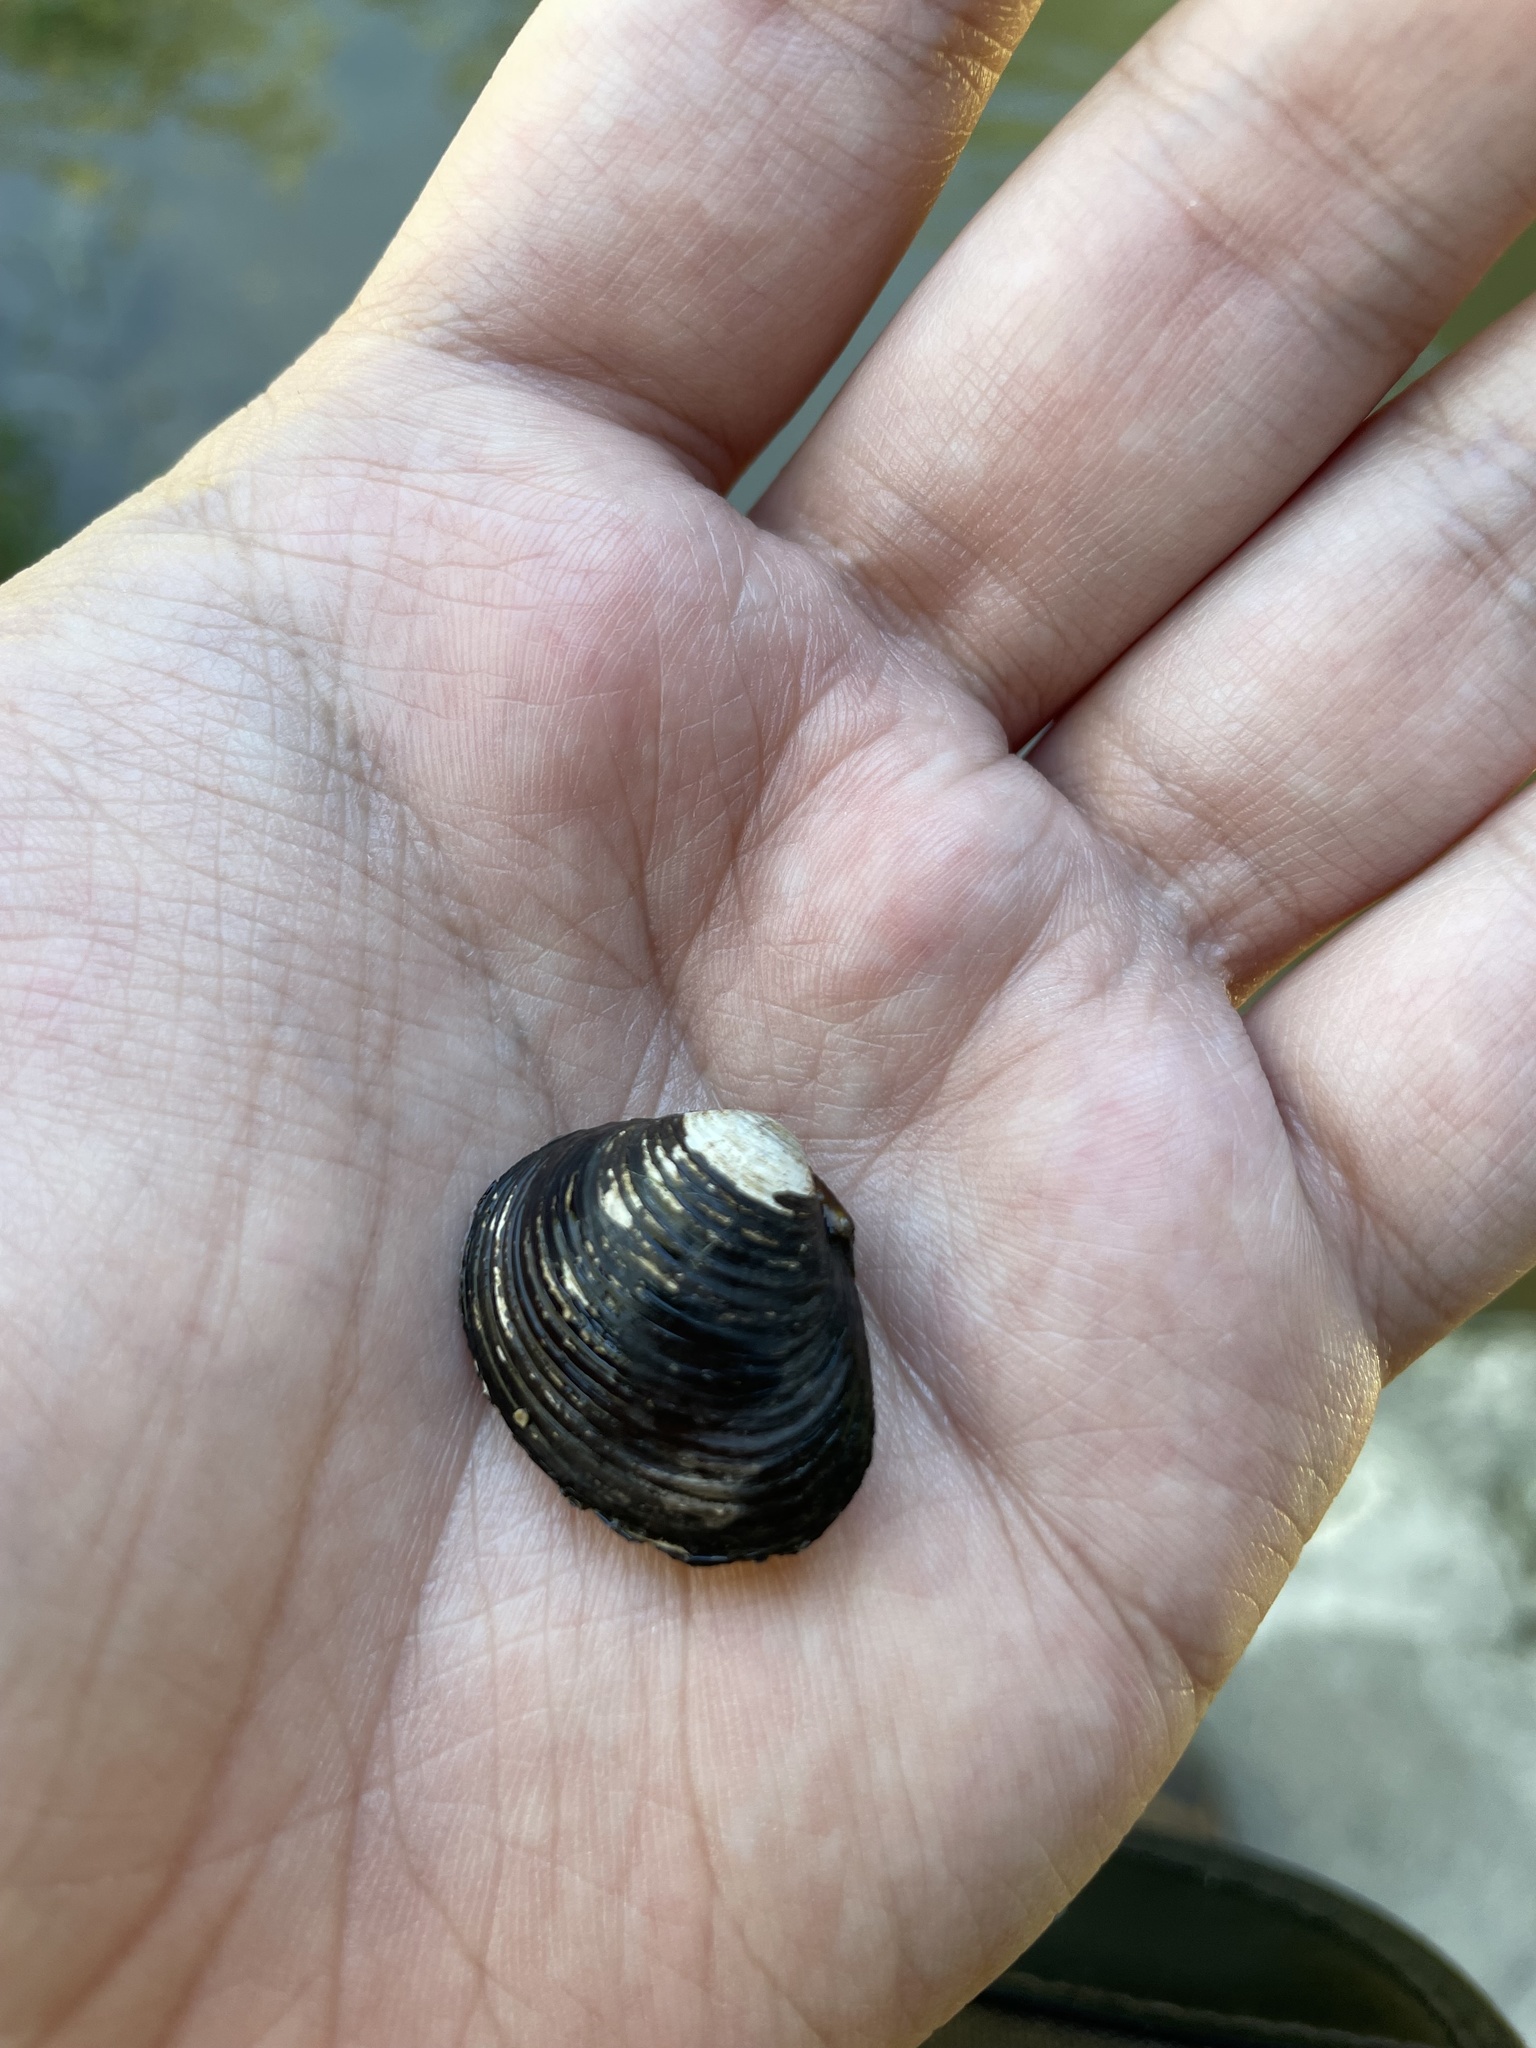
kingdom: Animalia
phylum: Mollusca
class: Bivalvia
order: Venerida
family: Cyrenidae
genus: Corbicula
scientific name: Corbicula fluminea
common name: Asian clam
